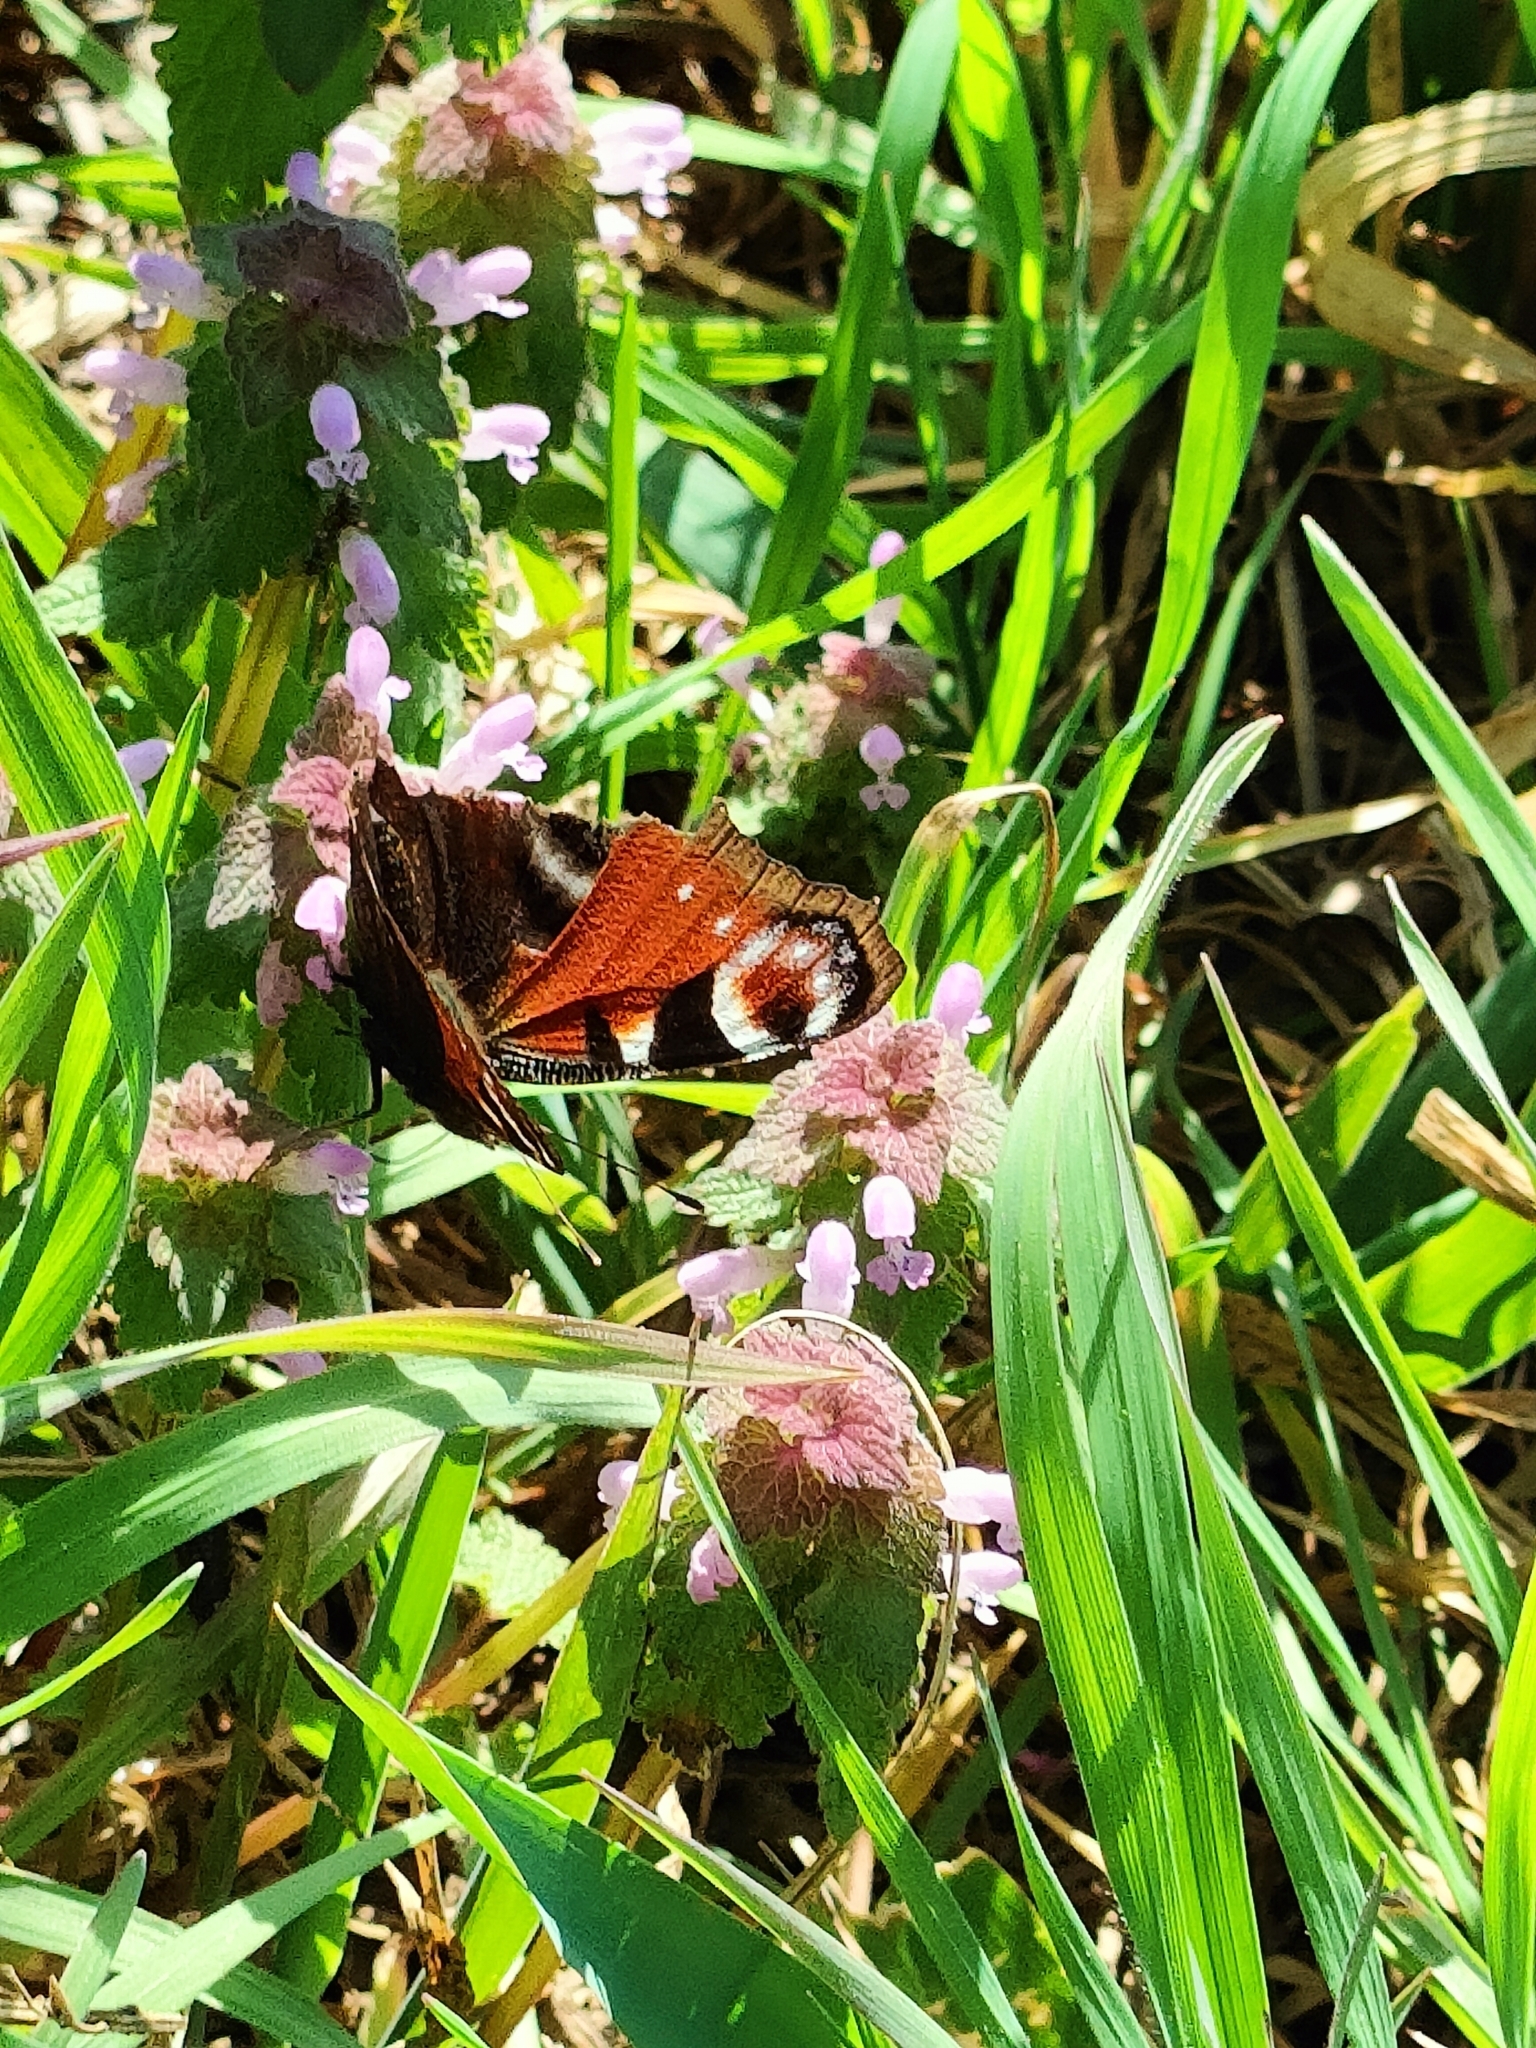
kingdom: Animalia
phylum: Arthropoda
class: Insecta
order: Lepidoptera
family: Nymphalidae
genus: Aglais
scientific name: Aglais io
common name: Peacock
